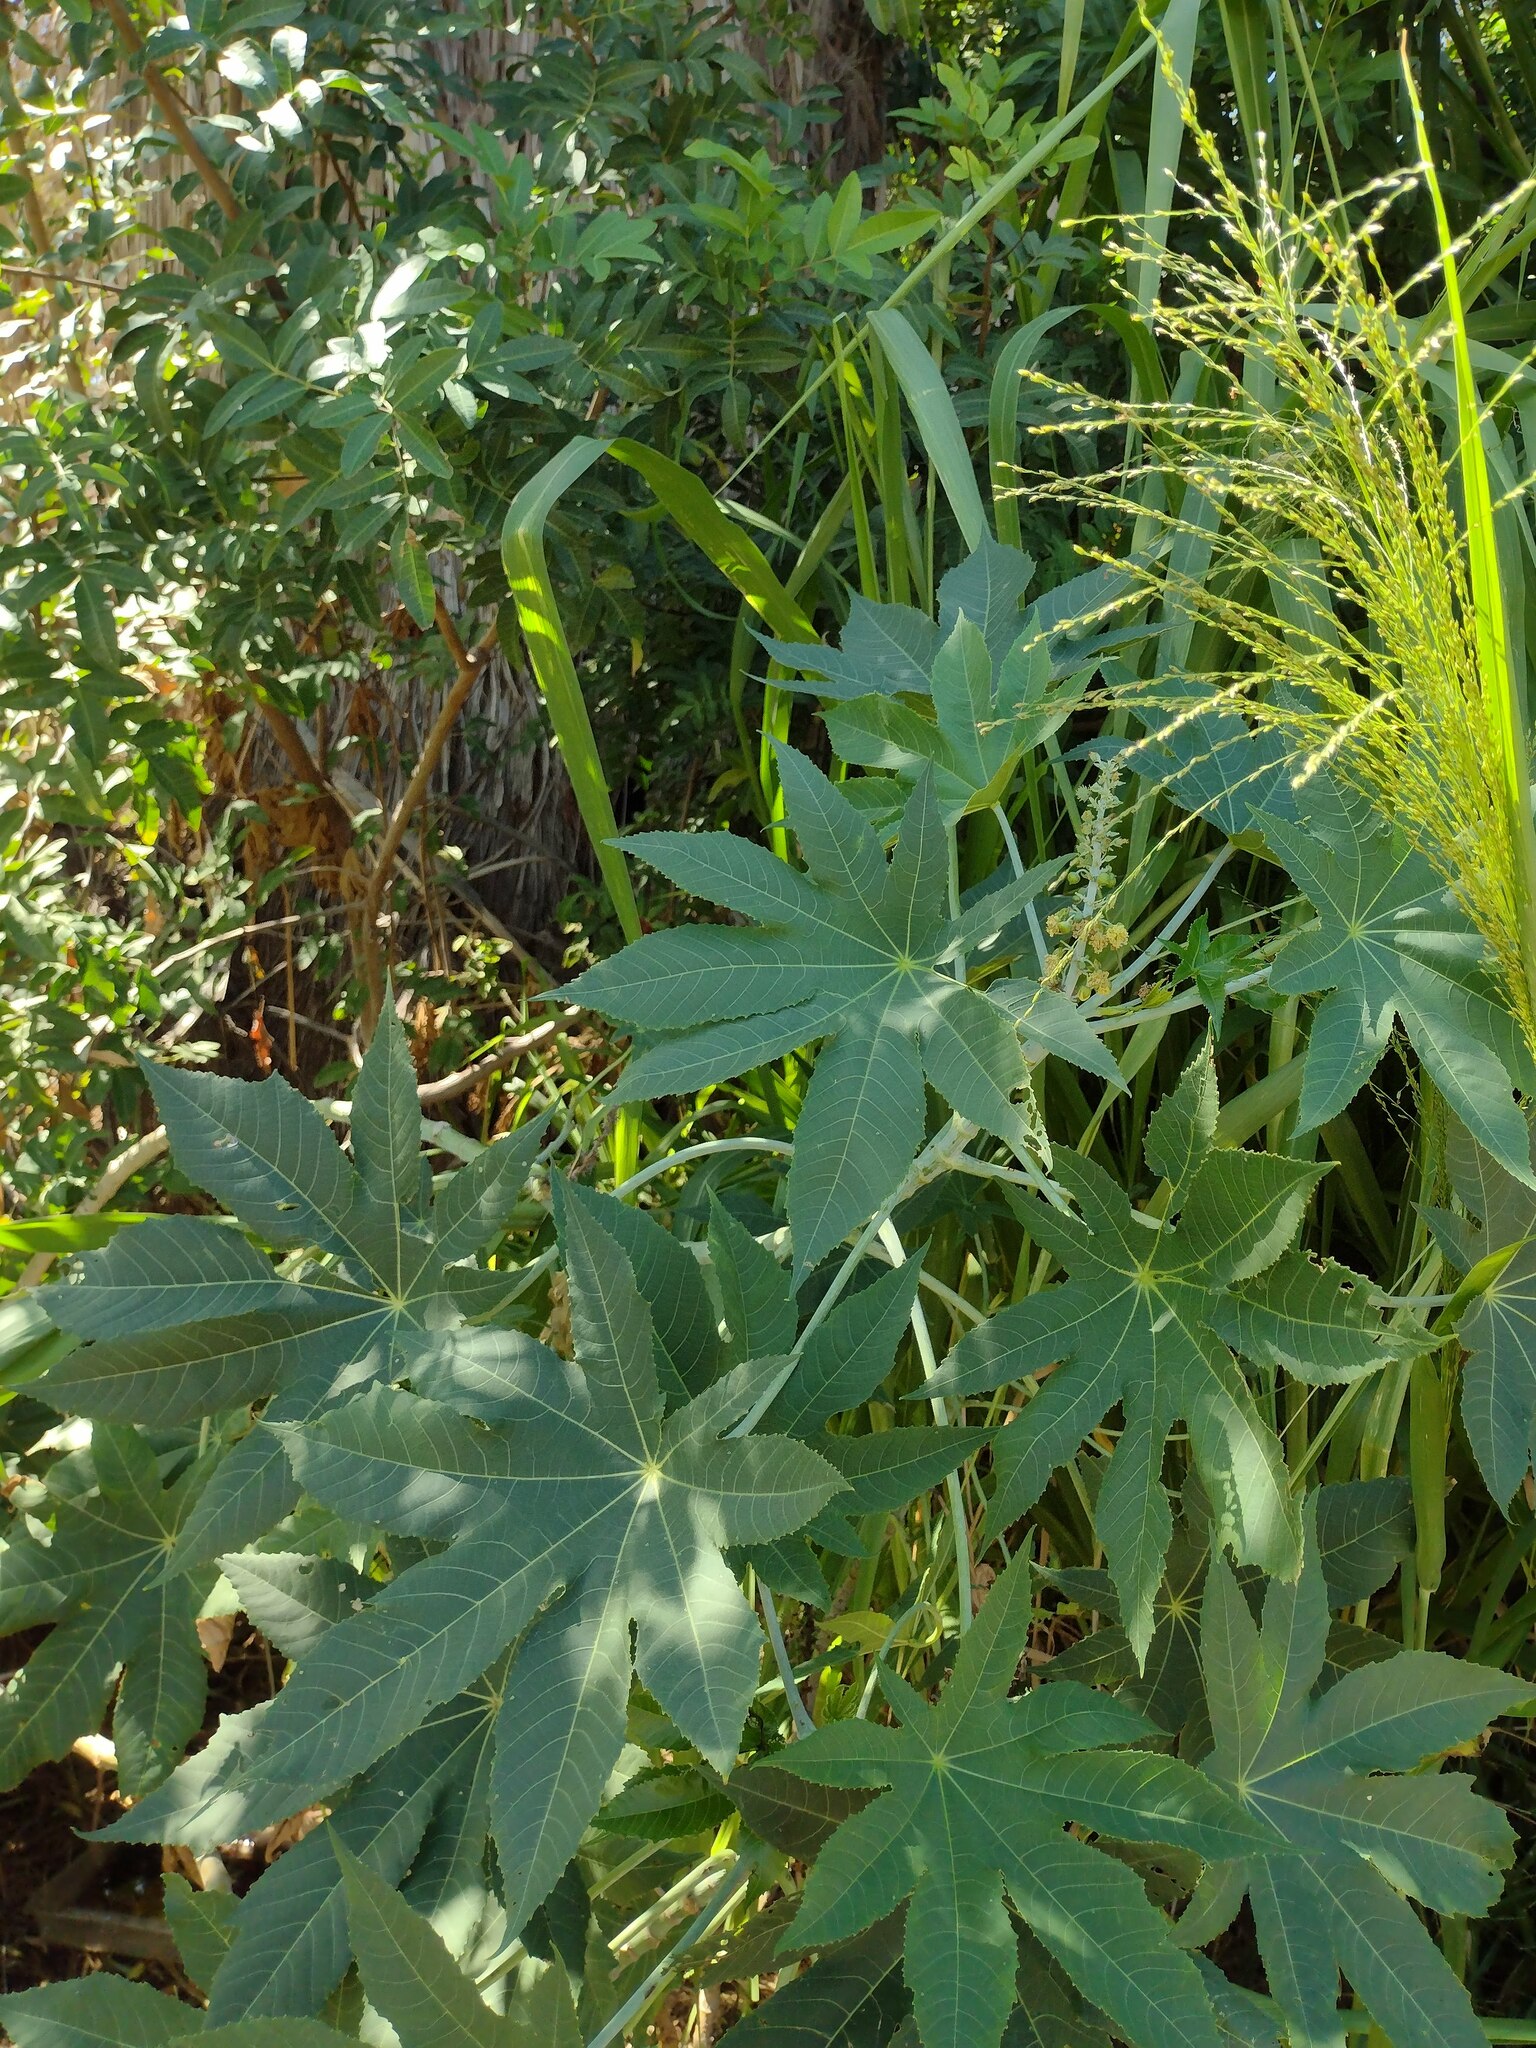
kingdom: Plantae
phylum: Tracheophyta
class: Magnoliopsida
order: Malpighiales
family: Euphorbiaceae
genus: Ricinus
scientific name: Ricinus communis
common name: Castor-oil-plant
